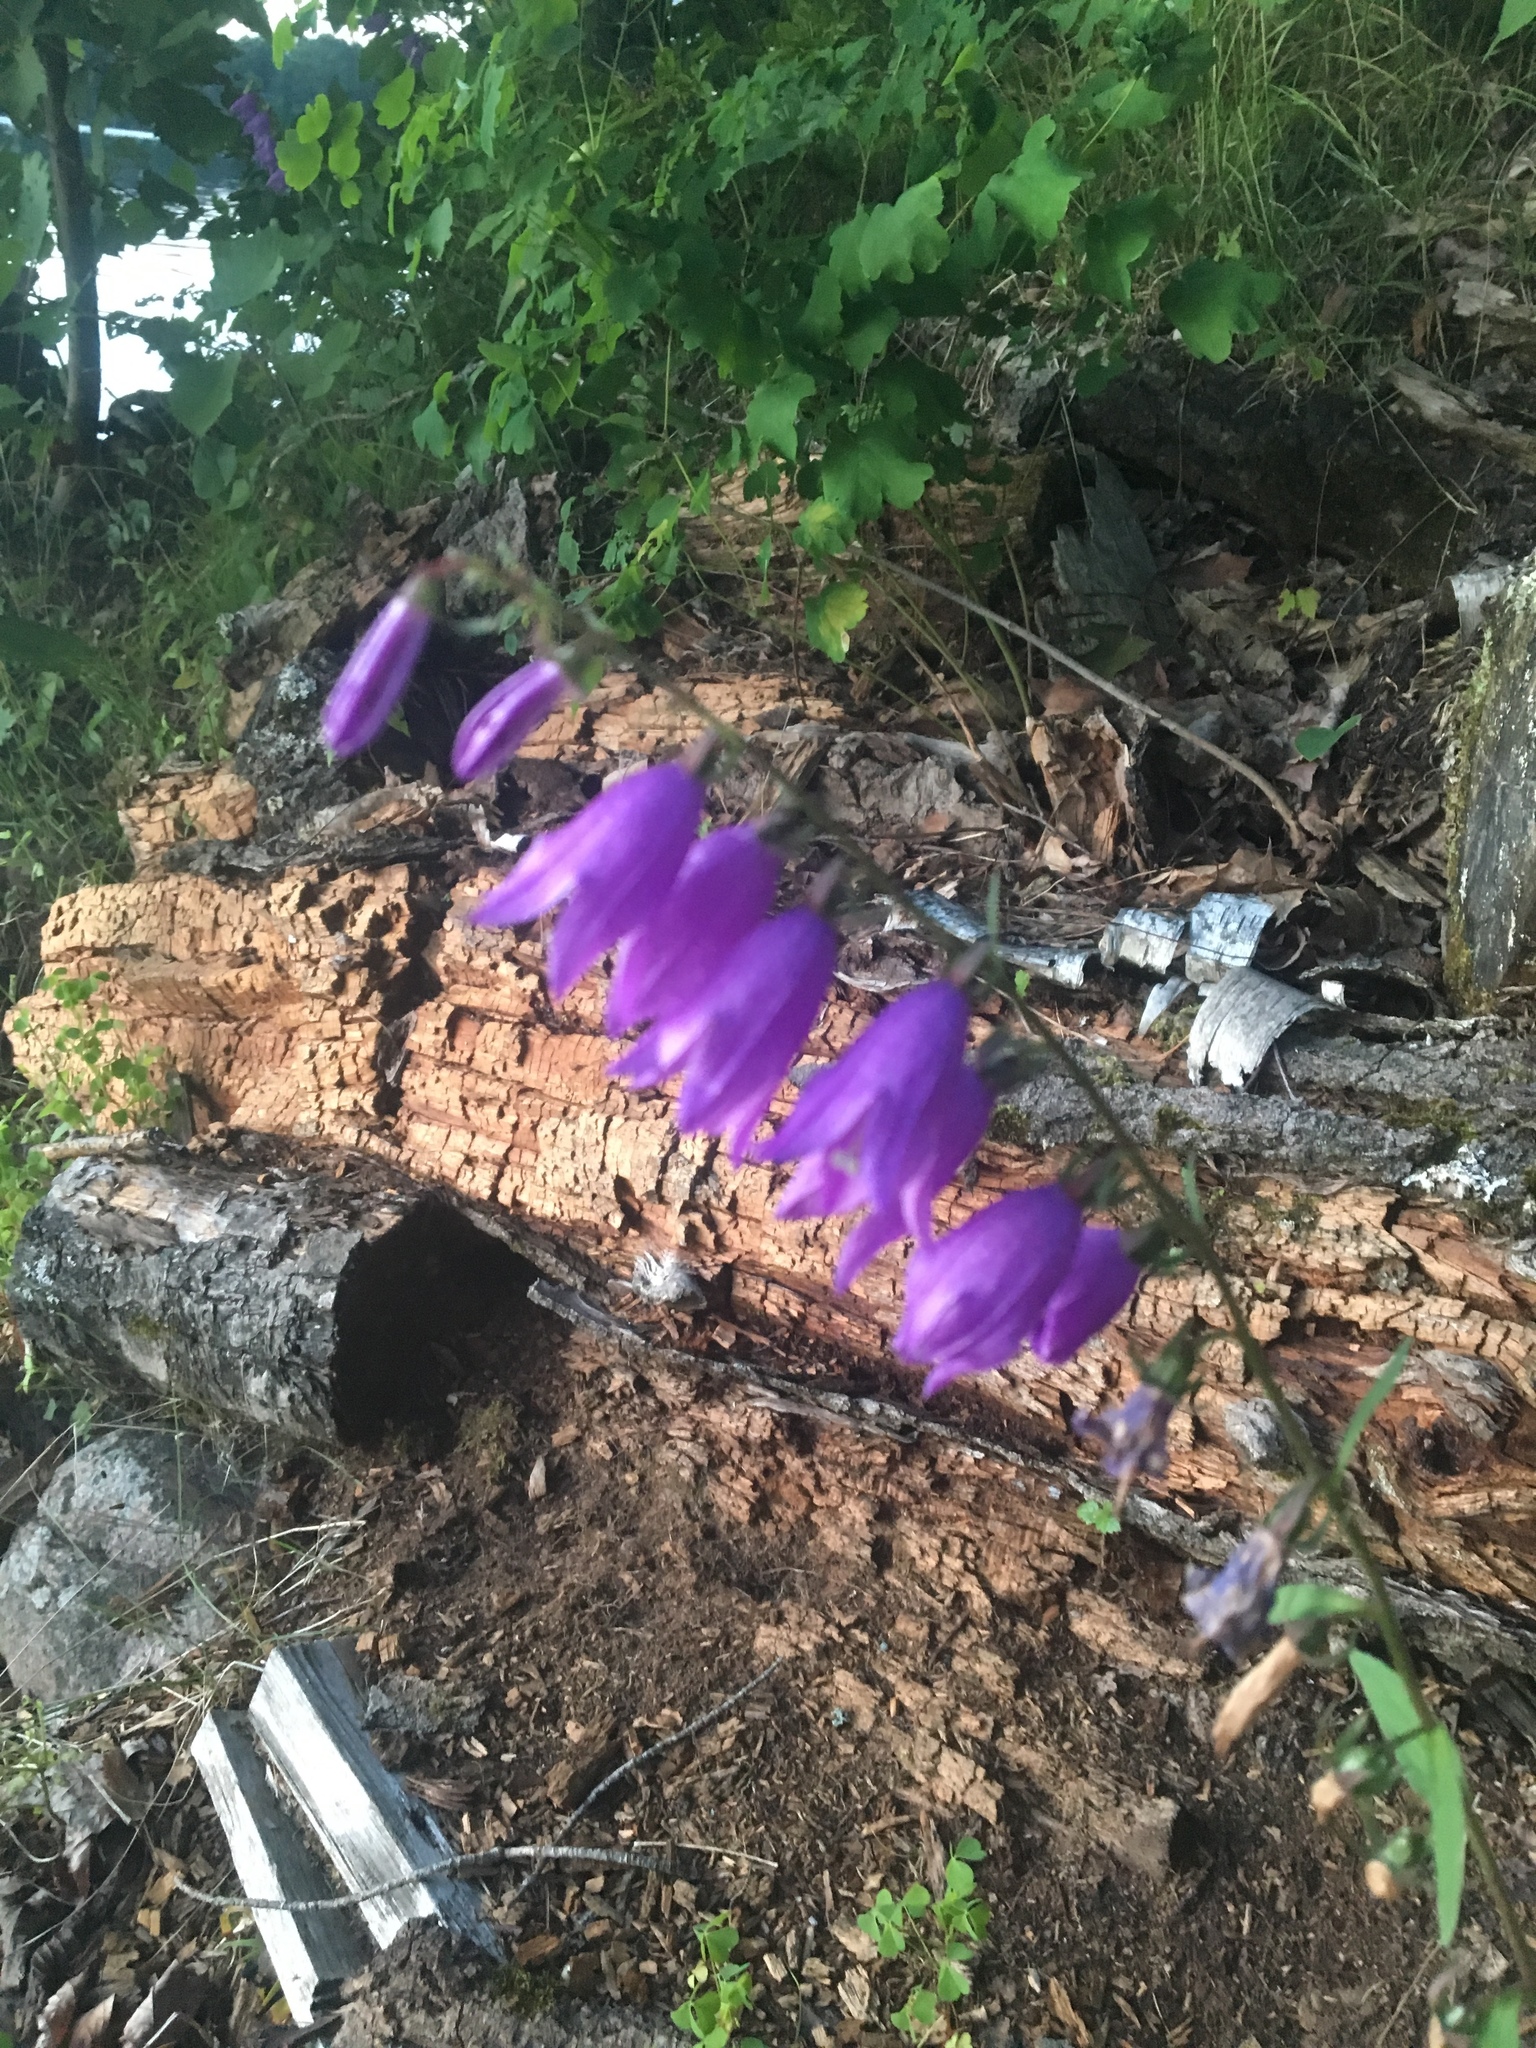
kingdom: Plantae
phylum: Tracheophyta
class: Magnoliopsida
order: Asterales
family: Campanulaceae
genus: Campanula
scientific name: Campanula rapunculoides
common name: Creeping bellflower
